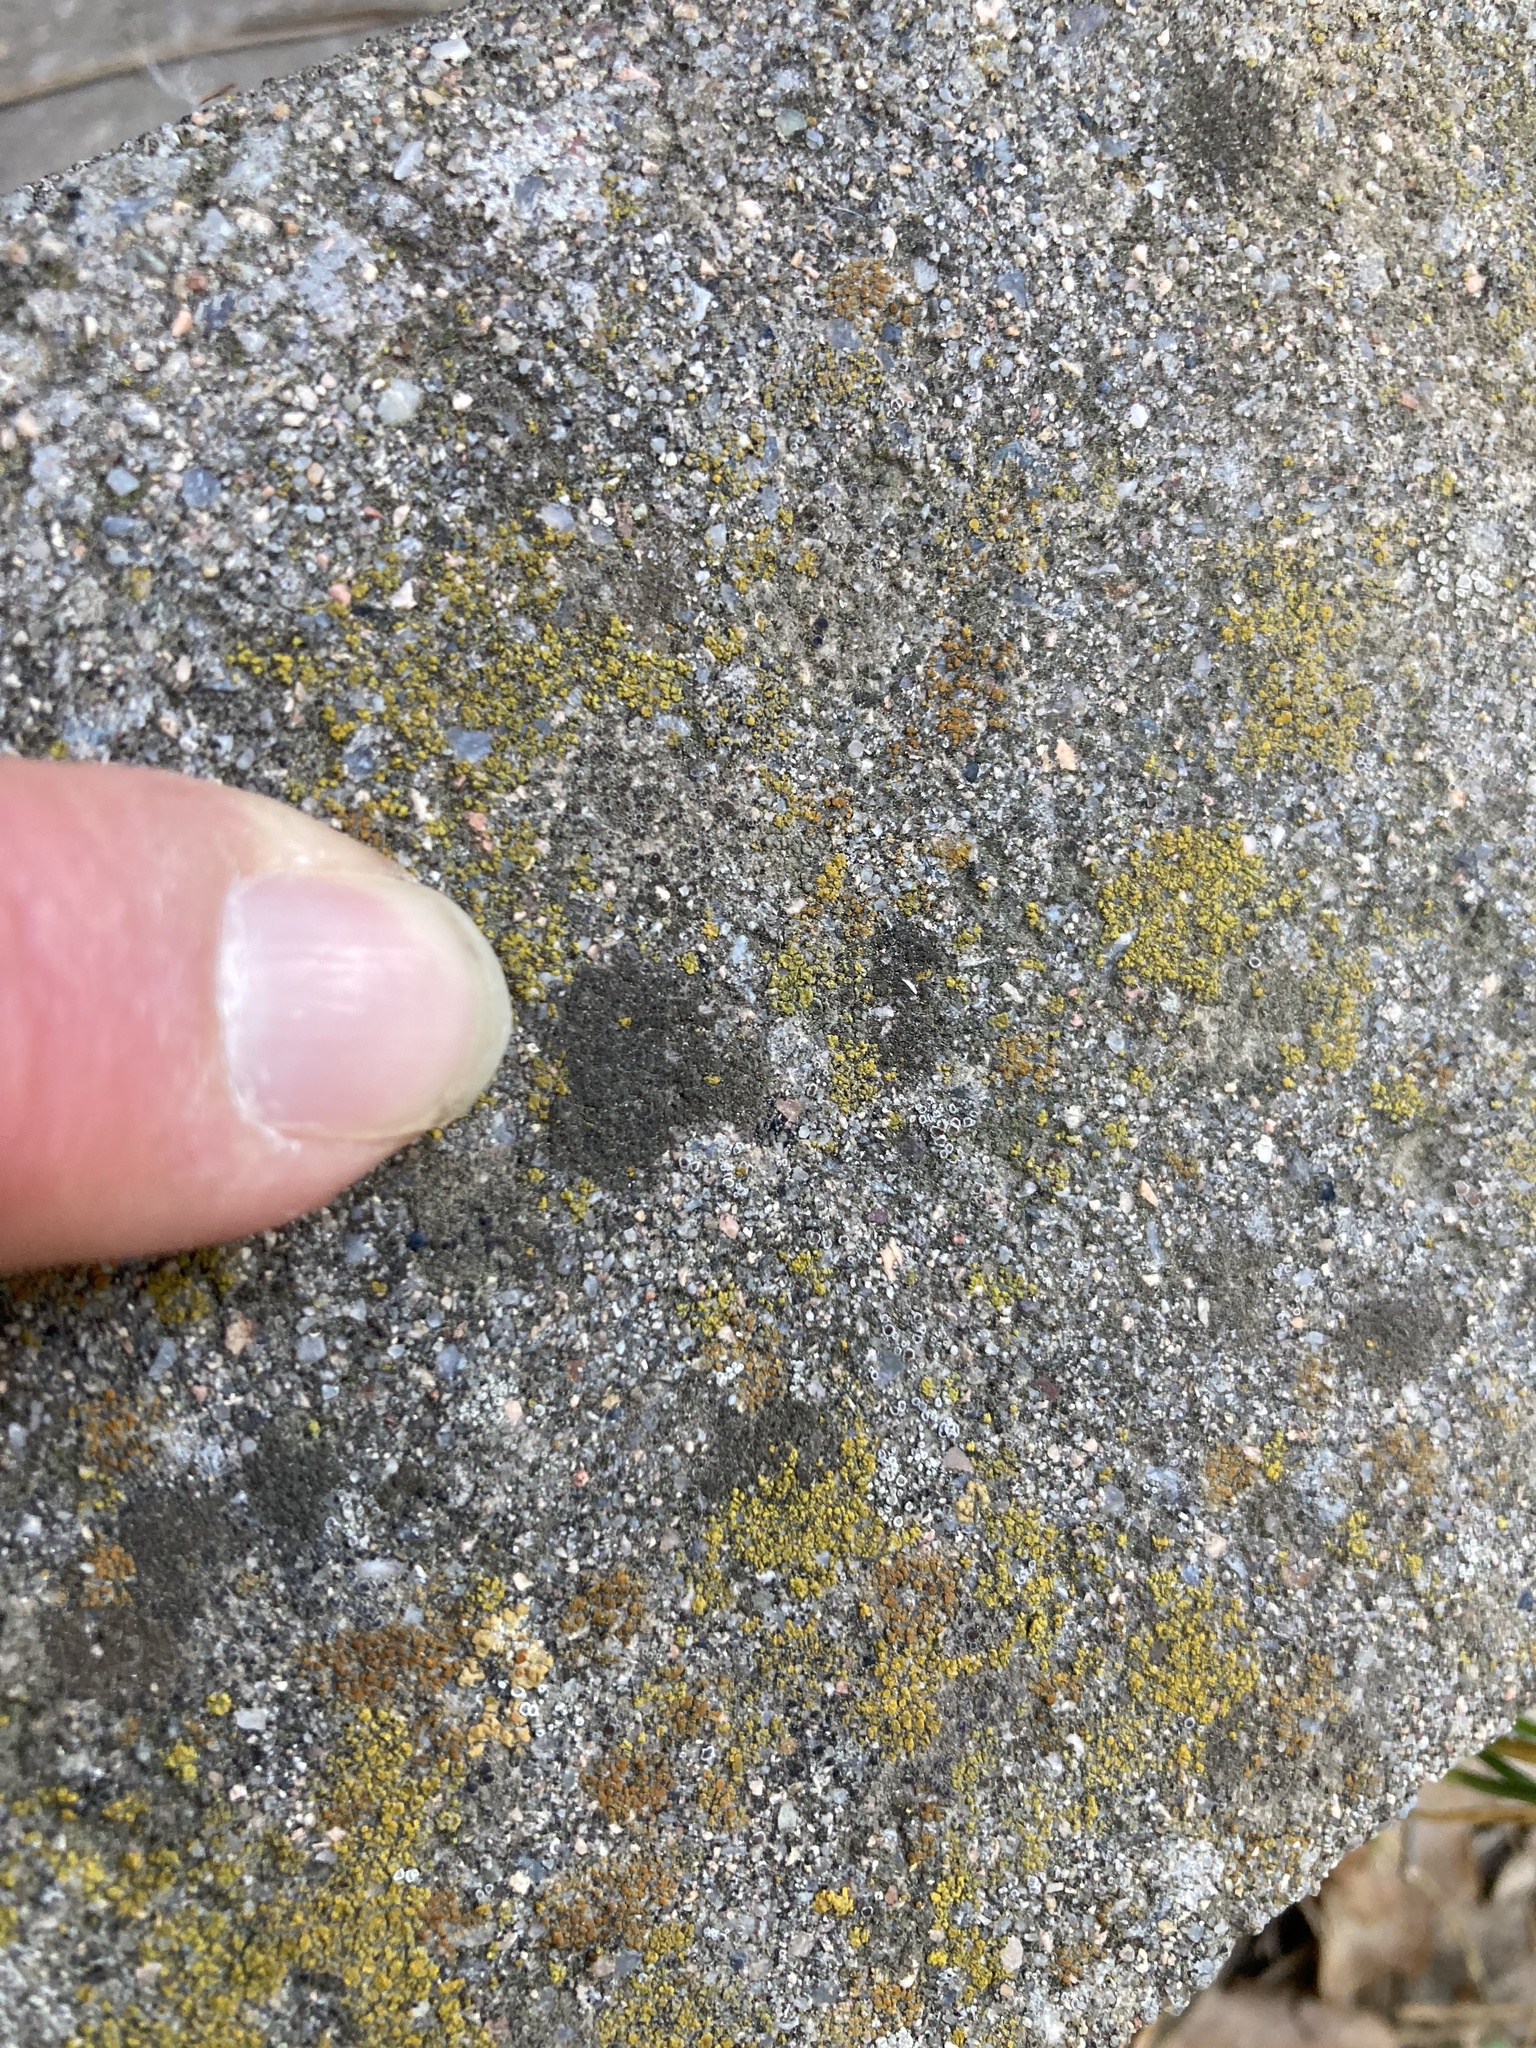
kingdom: Fungi
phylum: Ascomycota
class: Eurotiomycetes
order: Verrucariales
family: Verrucariaceae
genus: Verrucaria
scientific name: Verrucaria nigrescens
